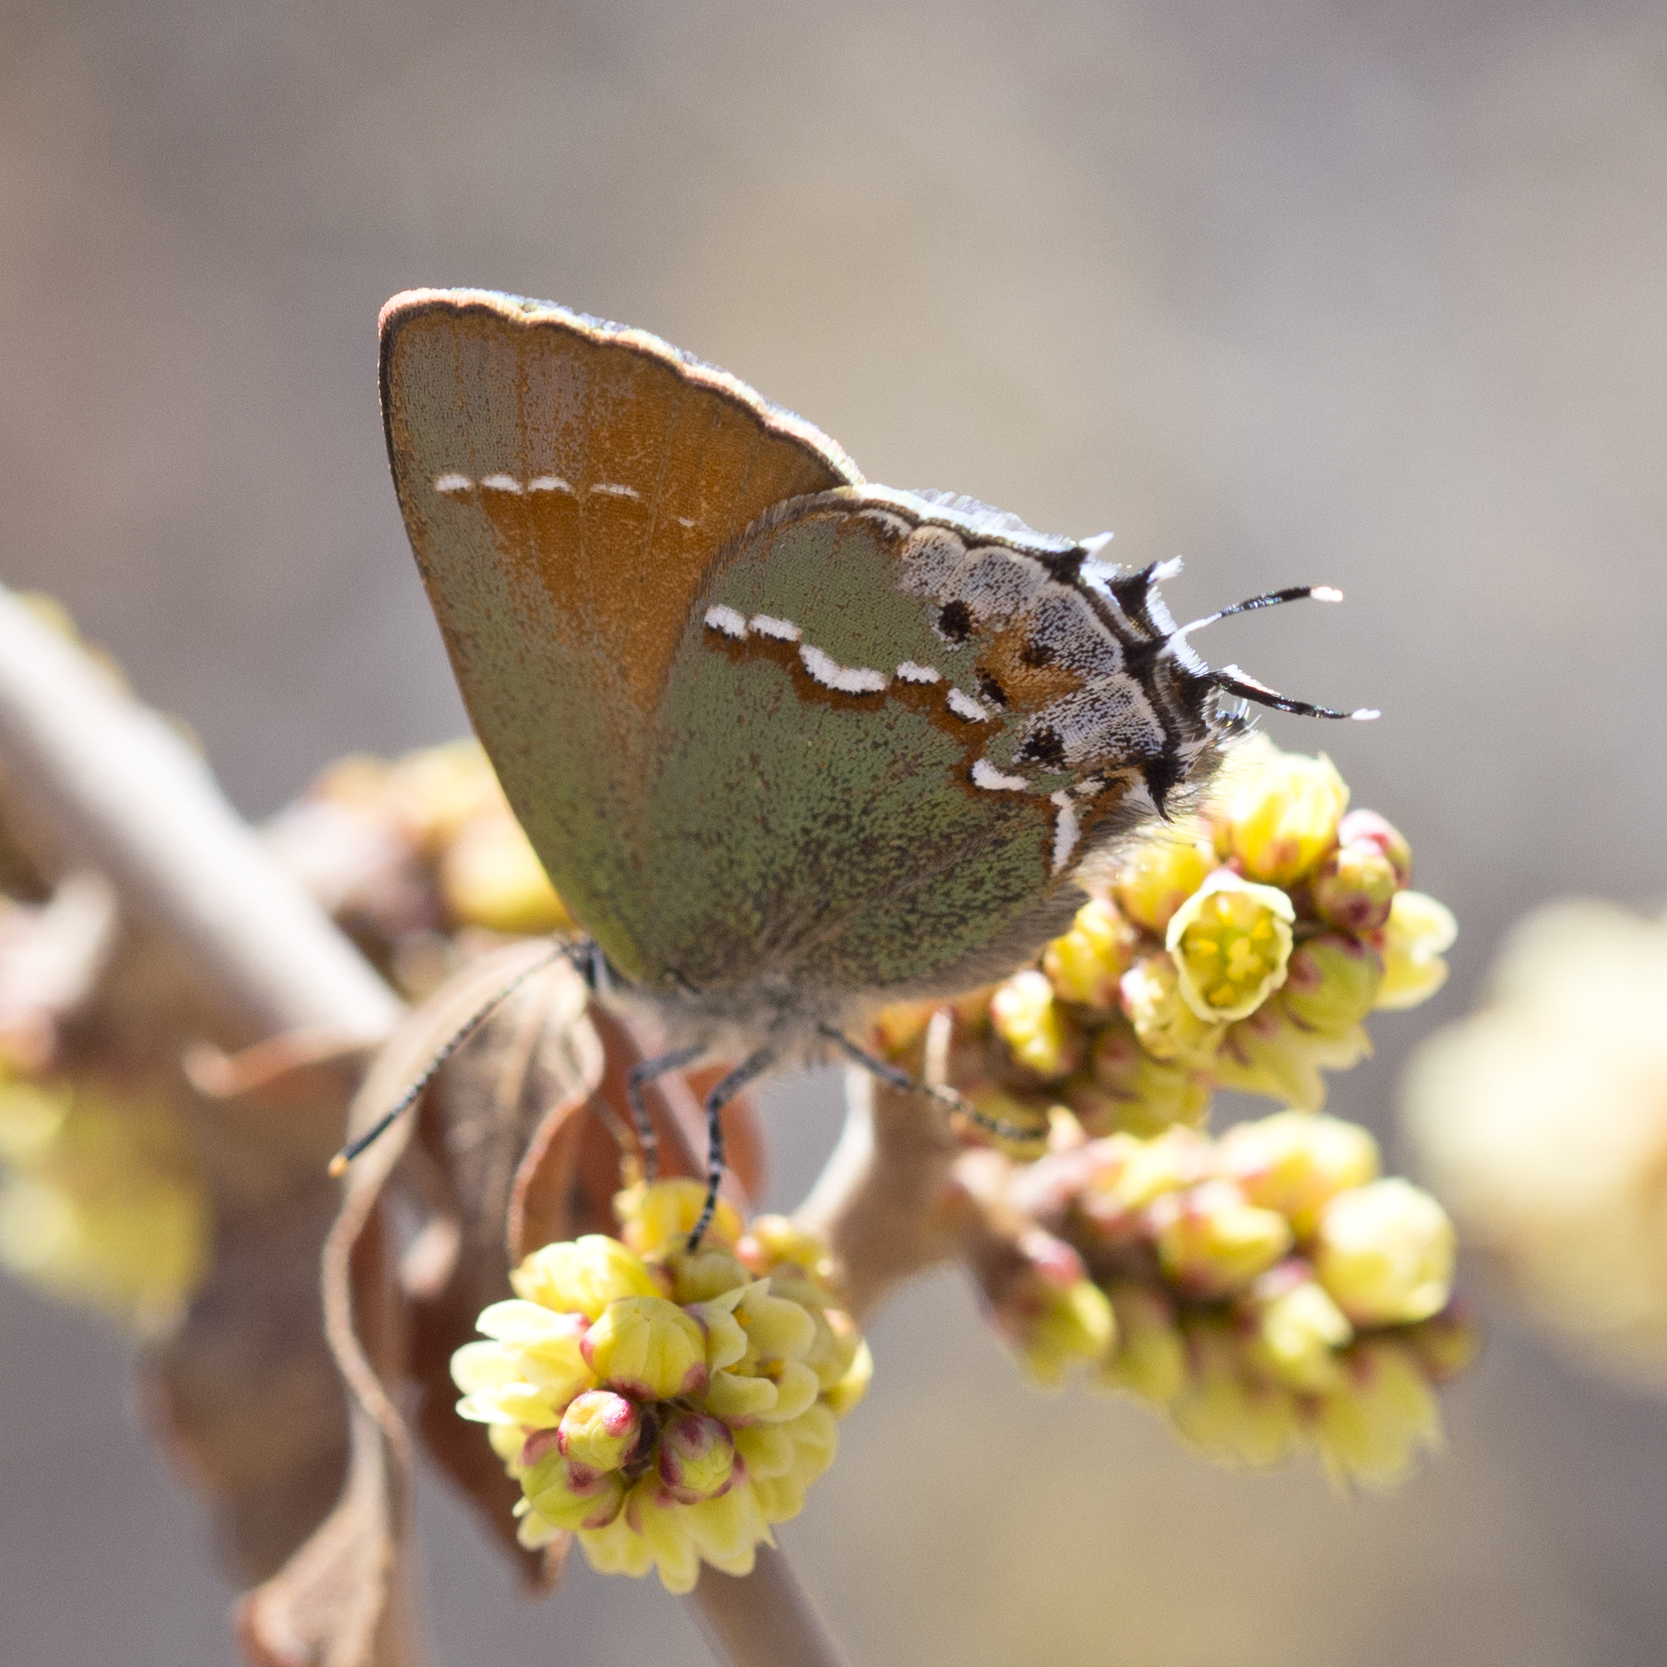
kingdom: Animalia
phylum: Arthropoda
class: Insecta
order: Lepidoptera
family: Lycaenidae
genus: Mitoura
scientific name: Mitoura siva
